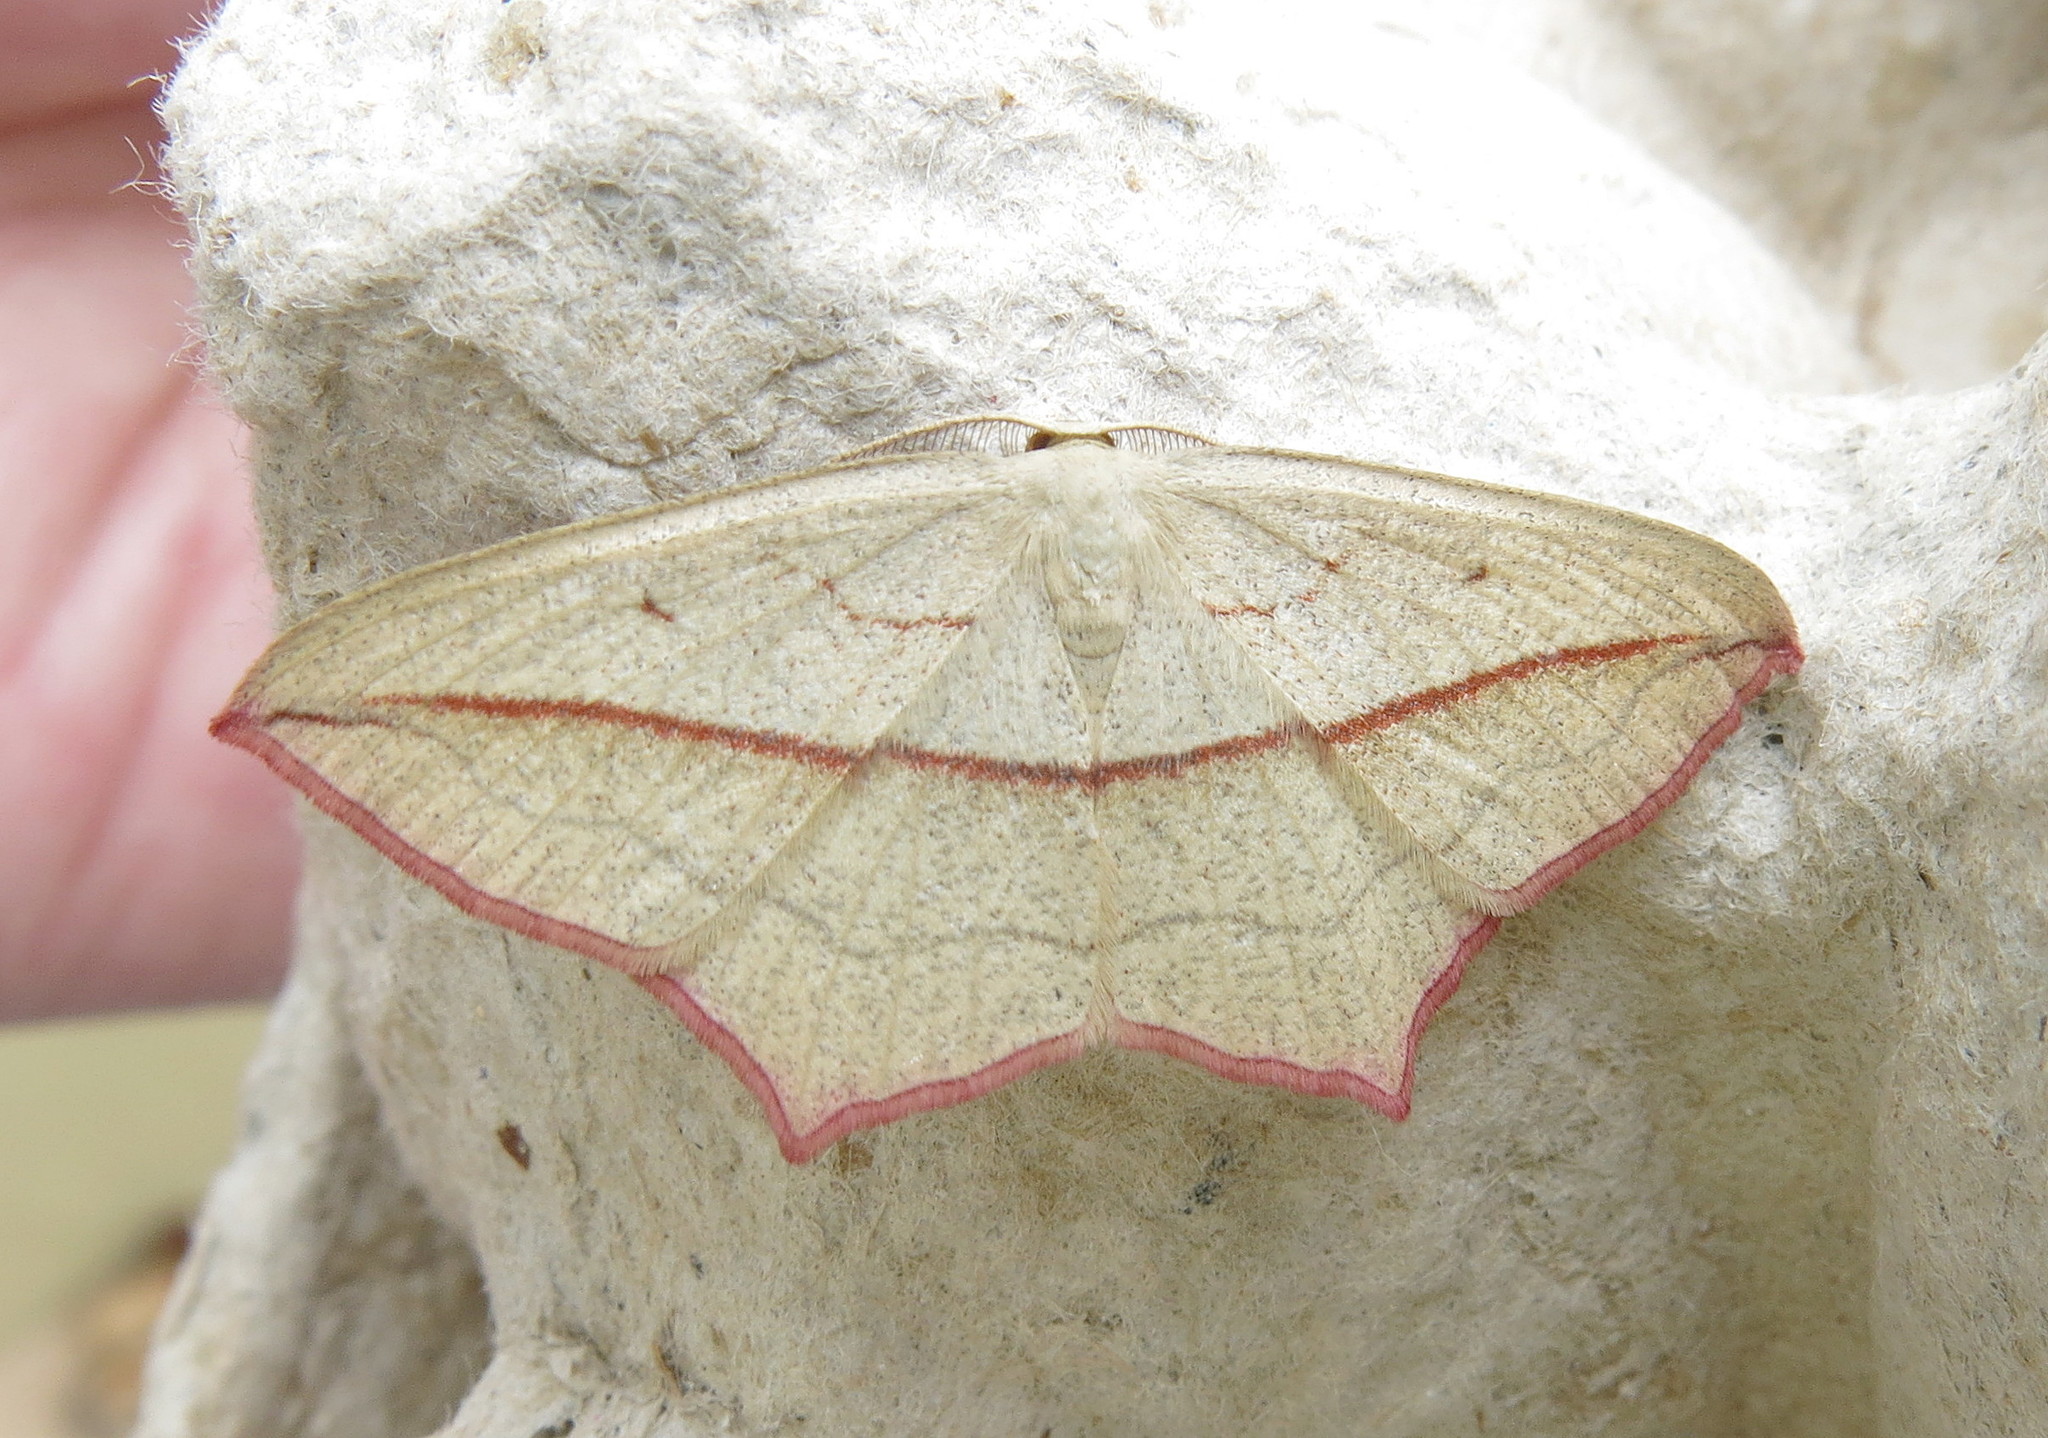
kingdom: Animalia
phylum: Arthropoda
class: Insecta
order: Lepidoptera
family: Geometridae
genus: Timandra
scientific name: Timandra comae
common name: Blood-vein
